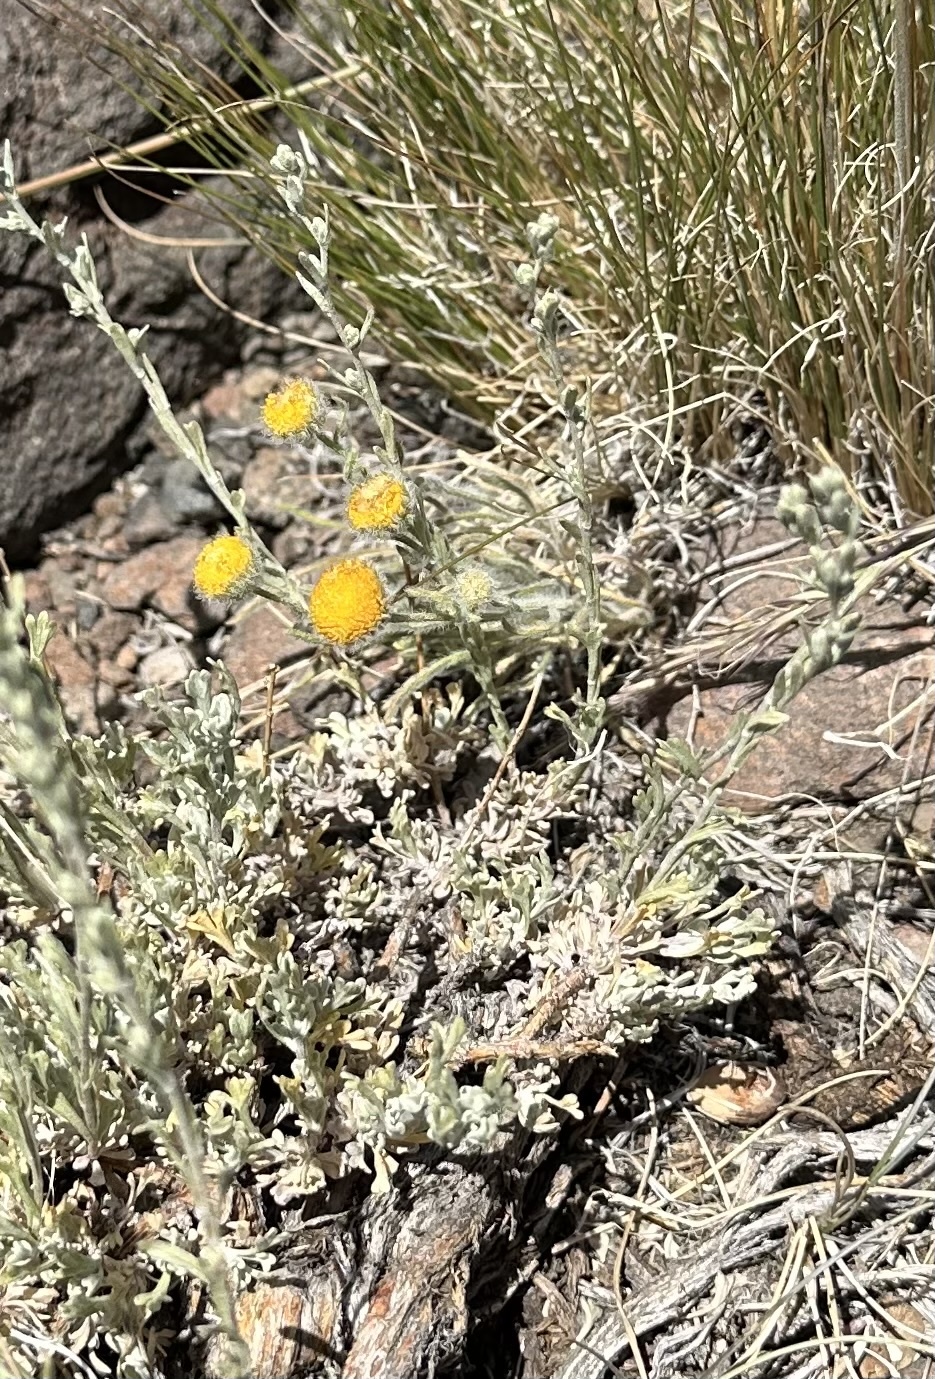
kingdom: Plantae
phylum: Tracheophyta
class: Magnoliopsida
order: Asterales
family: Asteraceae
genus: Erigeron
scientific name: Erigeron aphanactis
